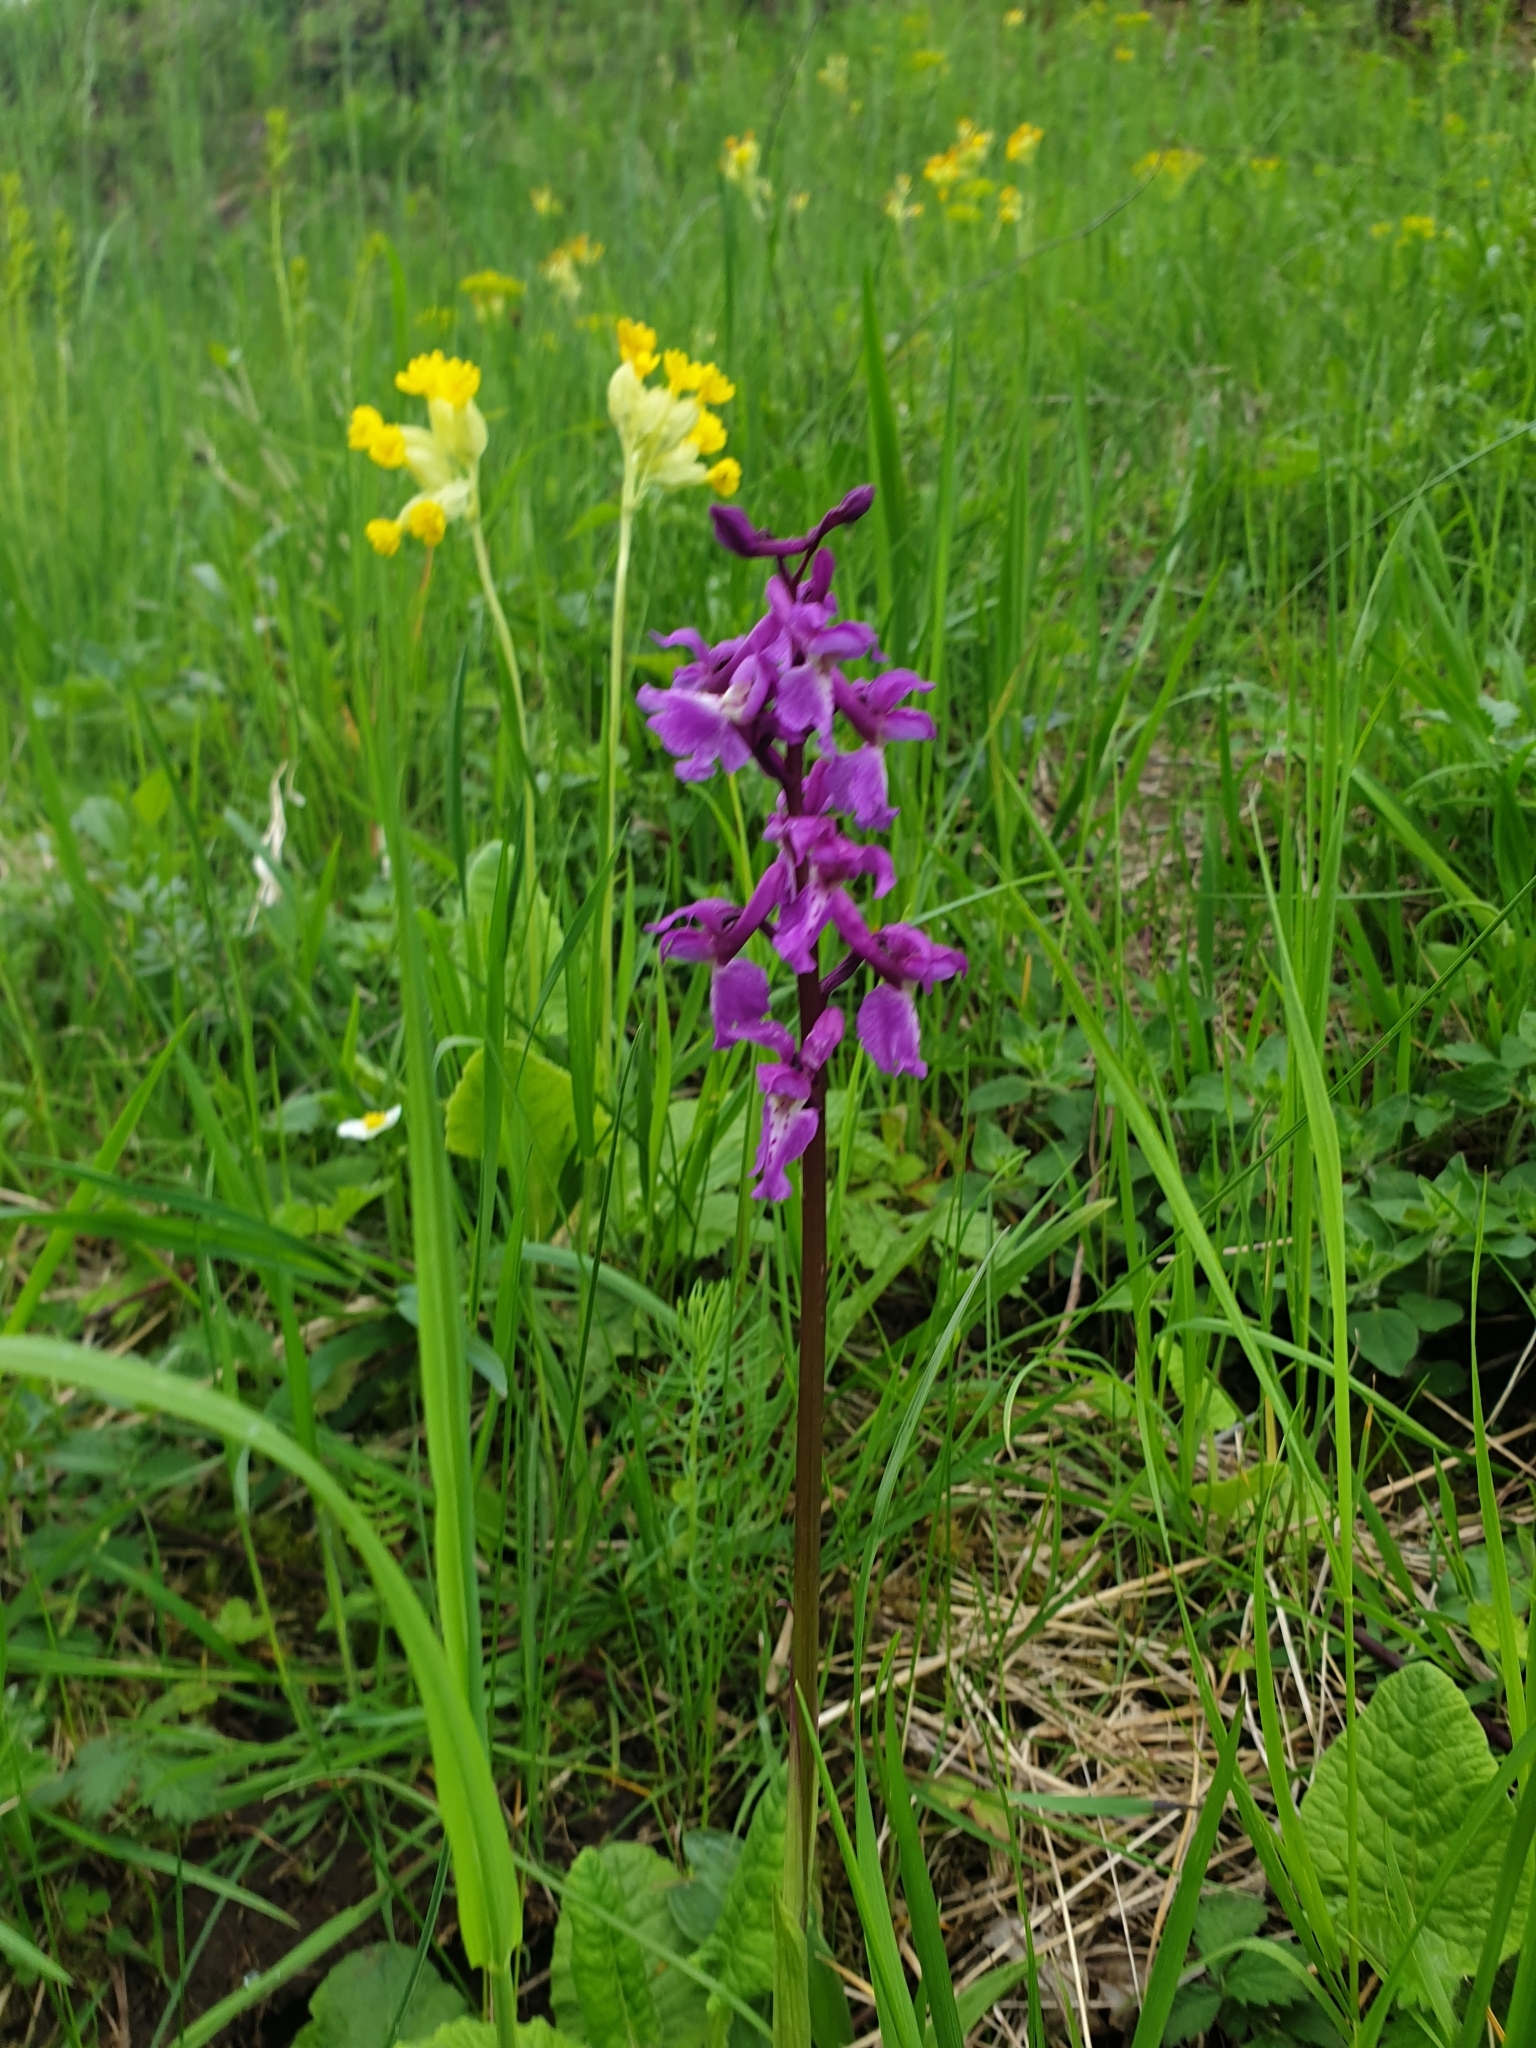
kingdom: Plantae
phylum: Tracheophyta
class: Liliopsida
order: Asparagales
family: Orchidaceae
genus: Orchis
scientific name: Orchis mascula
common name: Early-purple orchid
